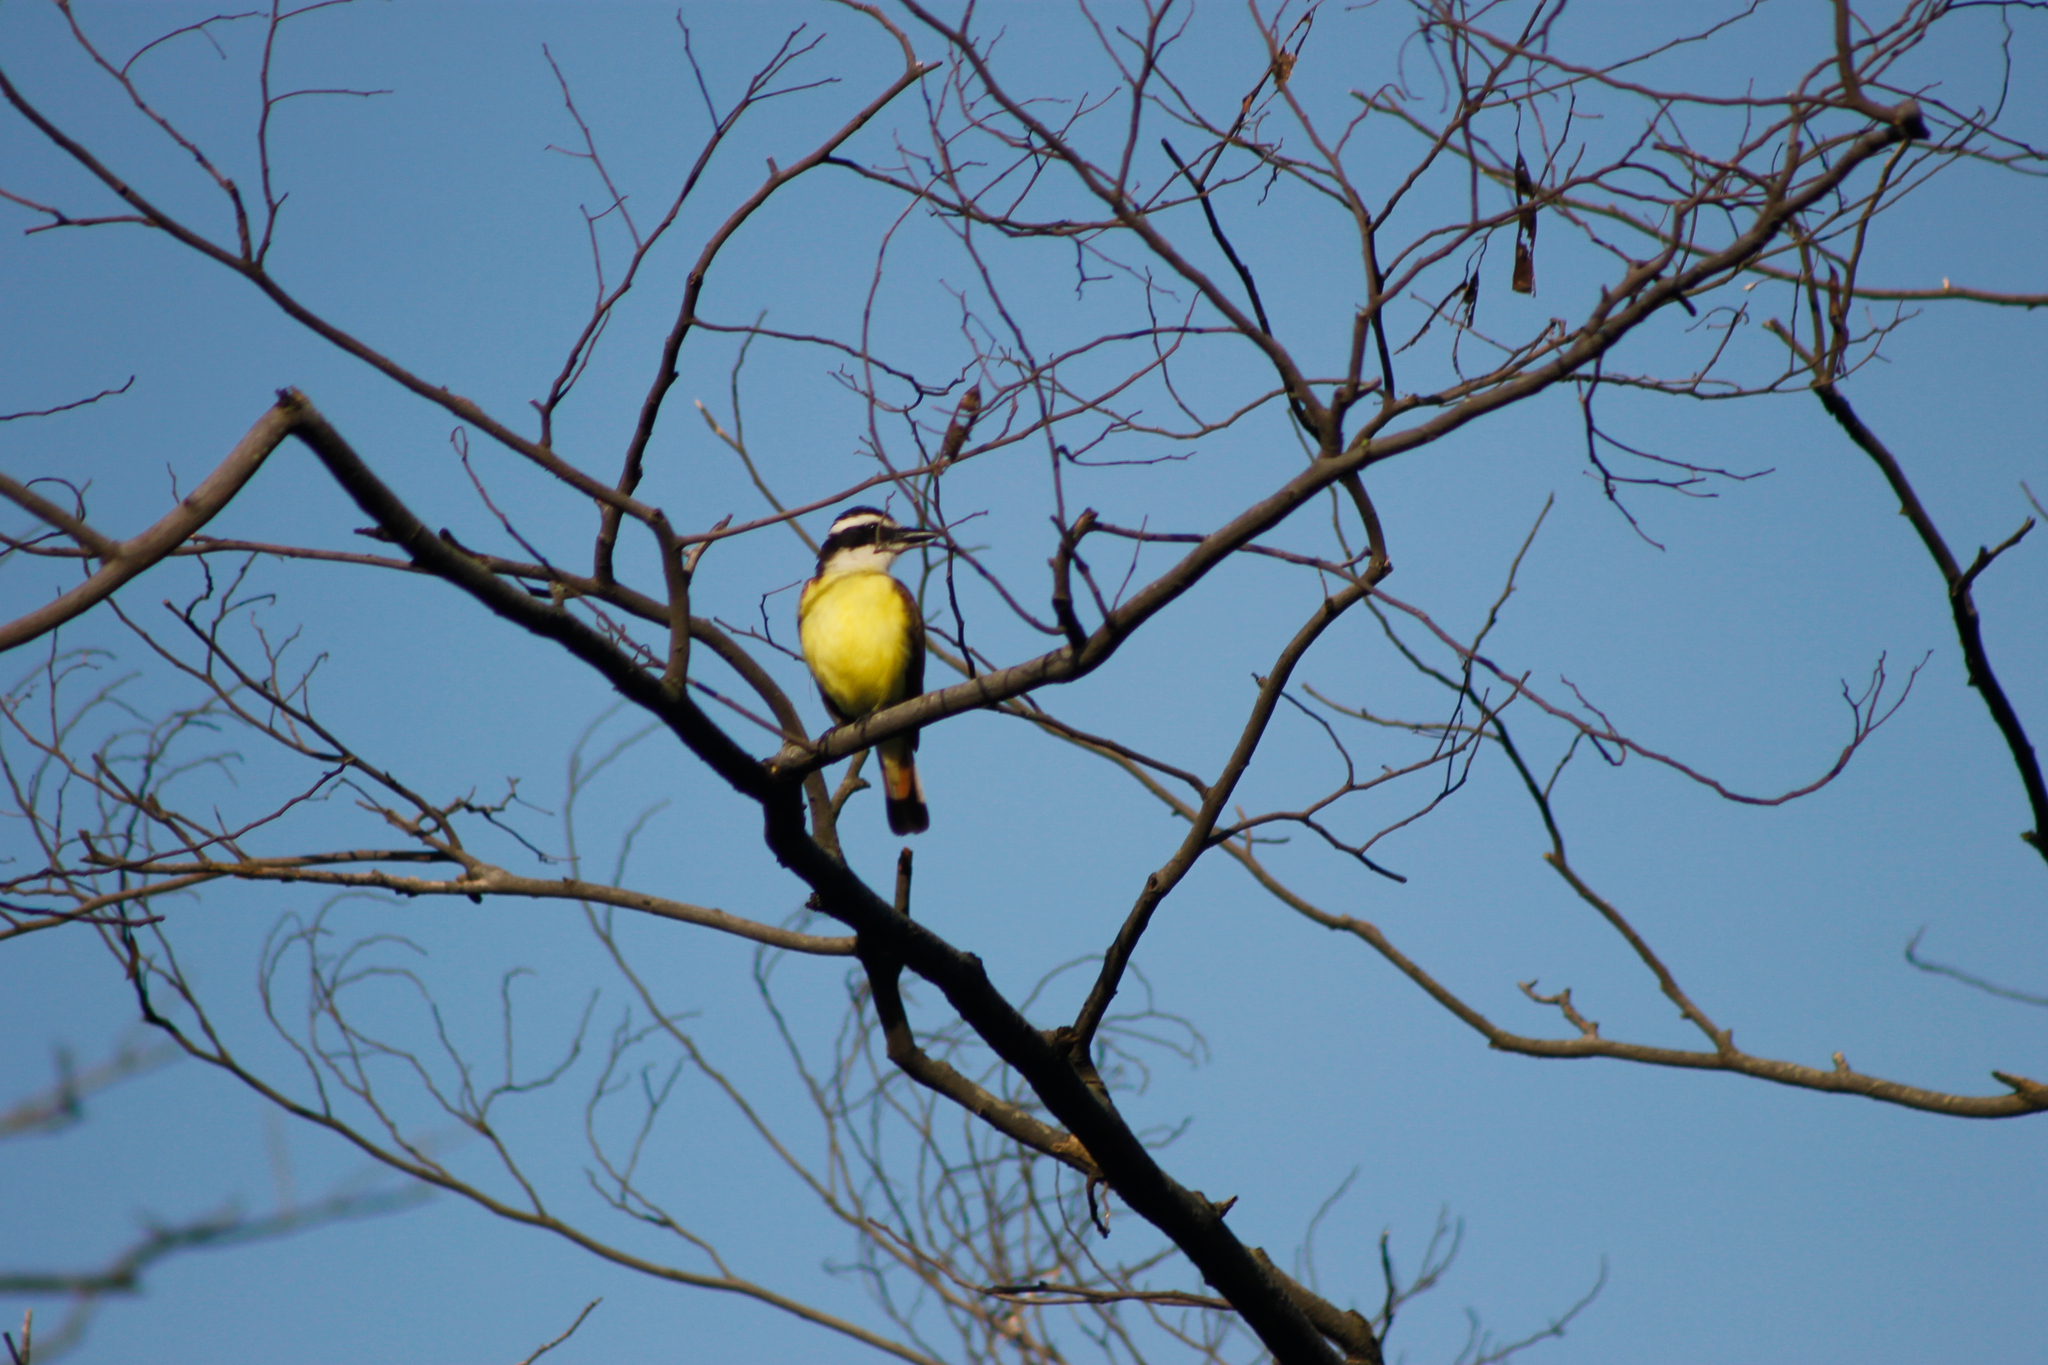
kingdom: Animalia
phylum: Chordata
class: Aves
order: Passeriformes
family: Tyrannidae
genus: Pitangus
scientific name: Pitangus sulphuratus
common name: Great kiskadee
